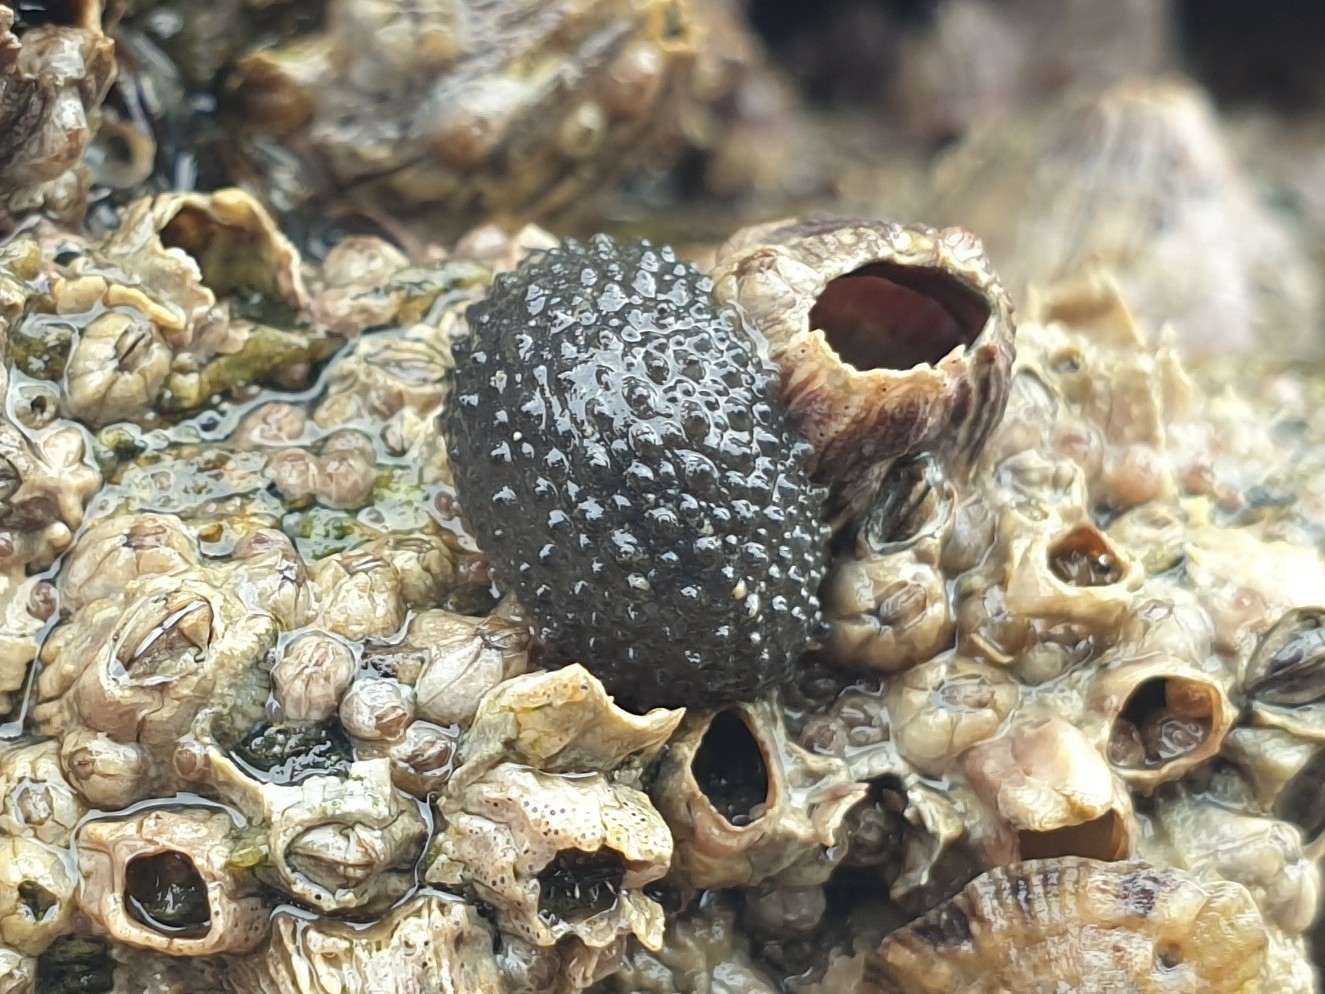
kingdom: Animalia
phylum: Mollusca
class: Gastropoda
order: Systellommatophora
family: Onchidiidae
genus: Onchidella
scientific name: Onchidella celtica
